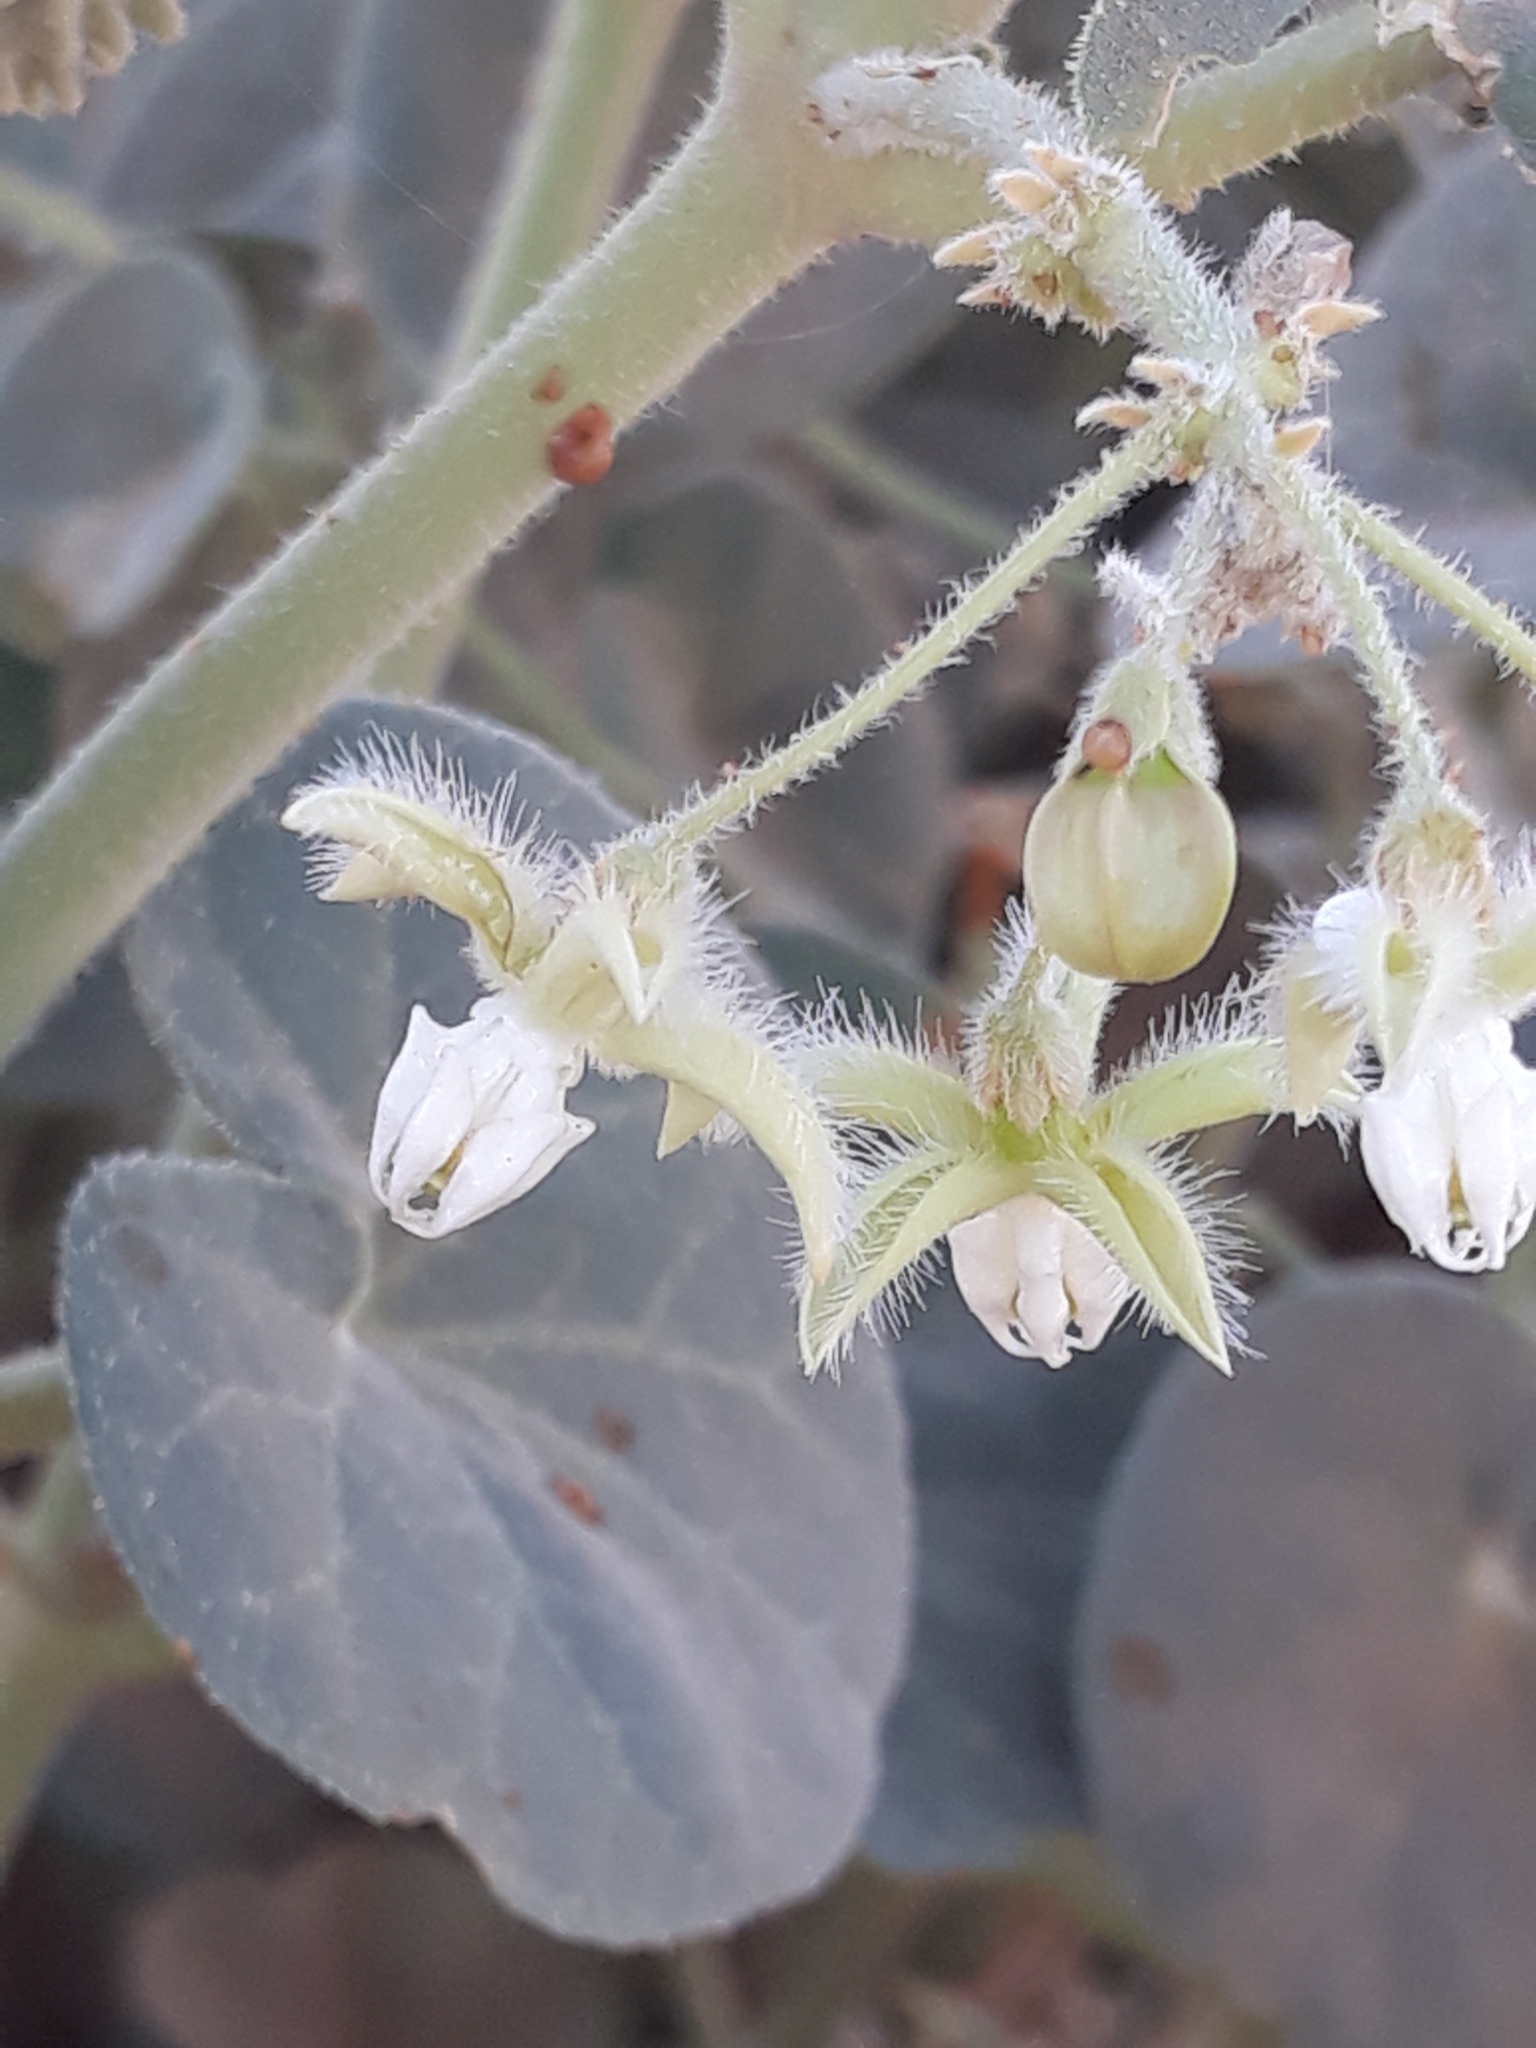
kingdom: Plantae
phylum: Tracheophyta
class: Magnoliopsida
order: Gentianales
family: Apocynaceae
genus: Pergularia
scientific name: Pergularia tomentosa
